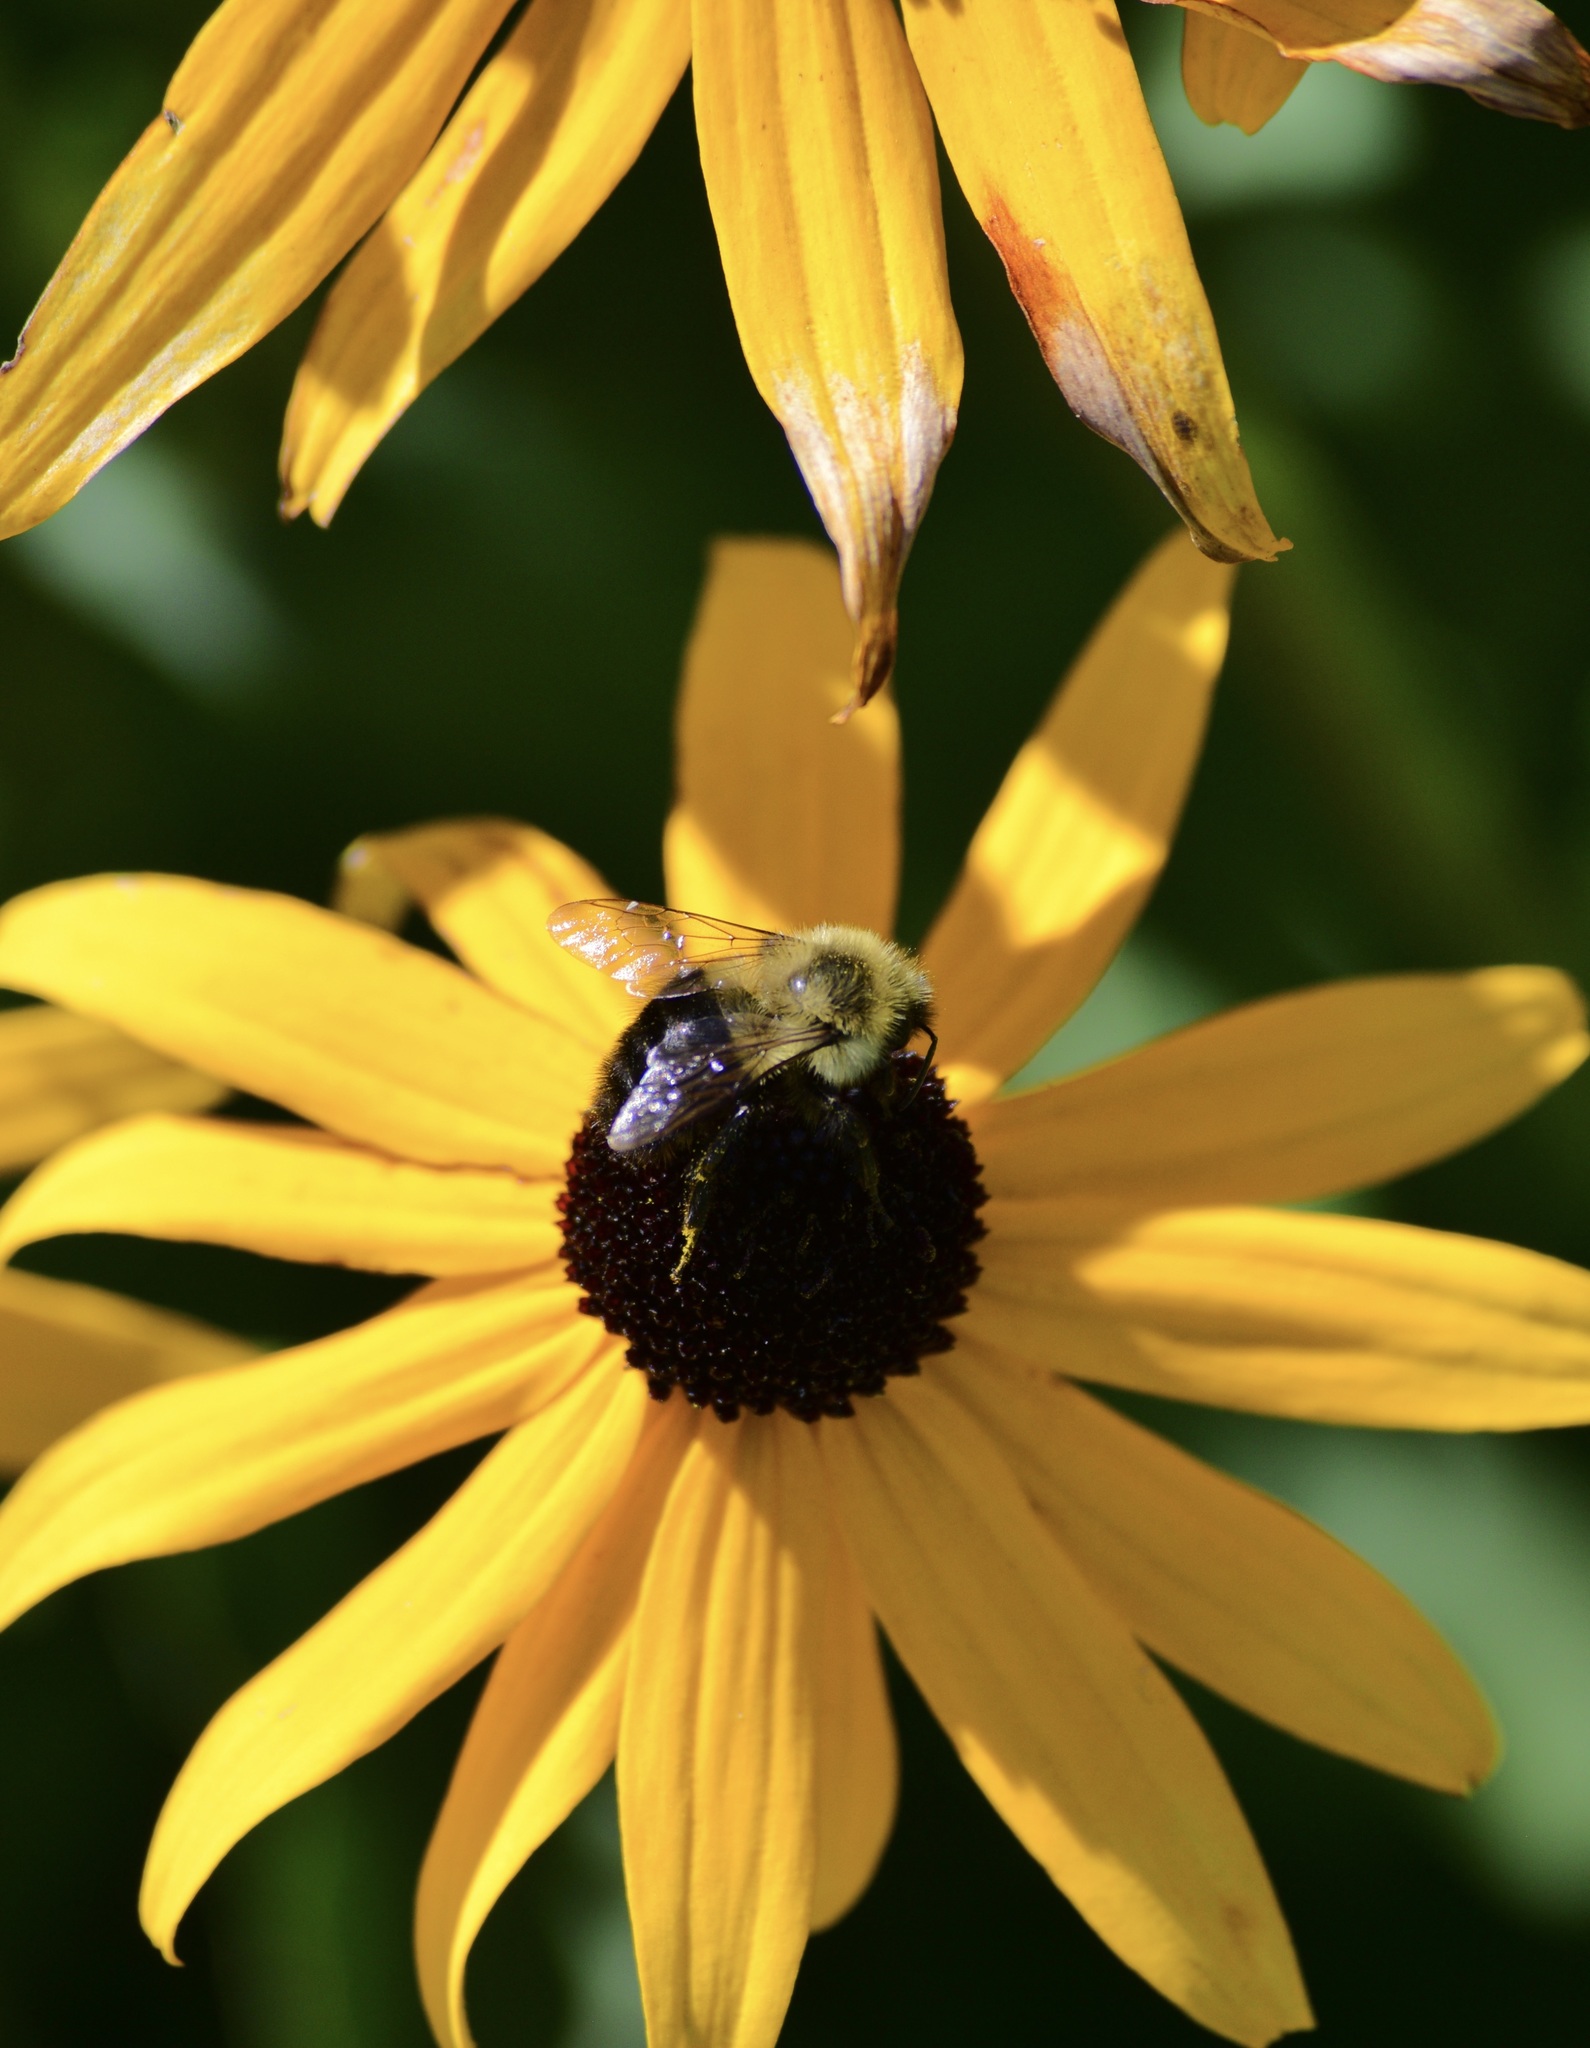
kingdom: Animalia
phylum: Arthropoda
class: Insecta
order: Hymenoptera
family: Apidae
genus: Bombus
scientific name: Bombus impatiens
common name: Common eastern bumble bee
